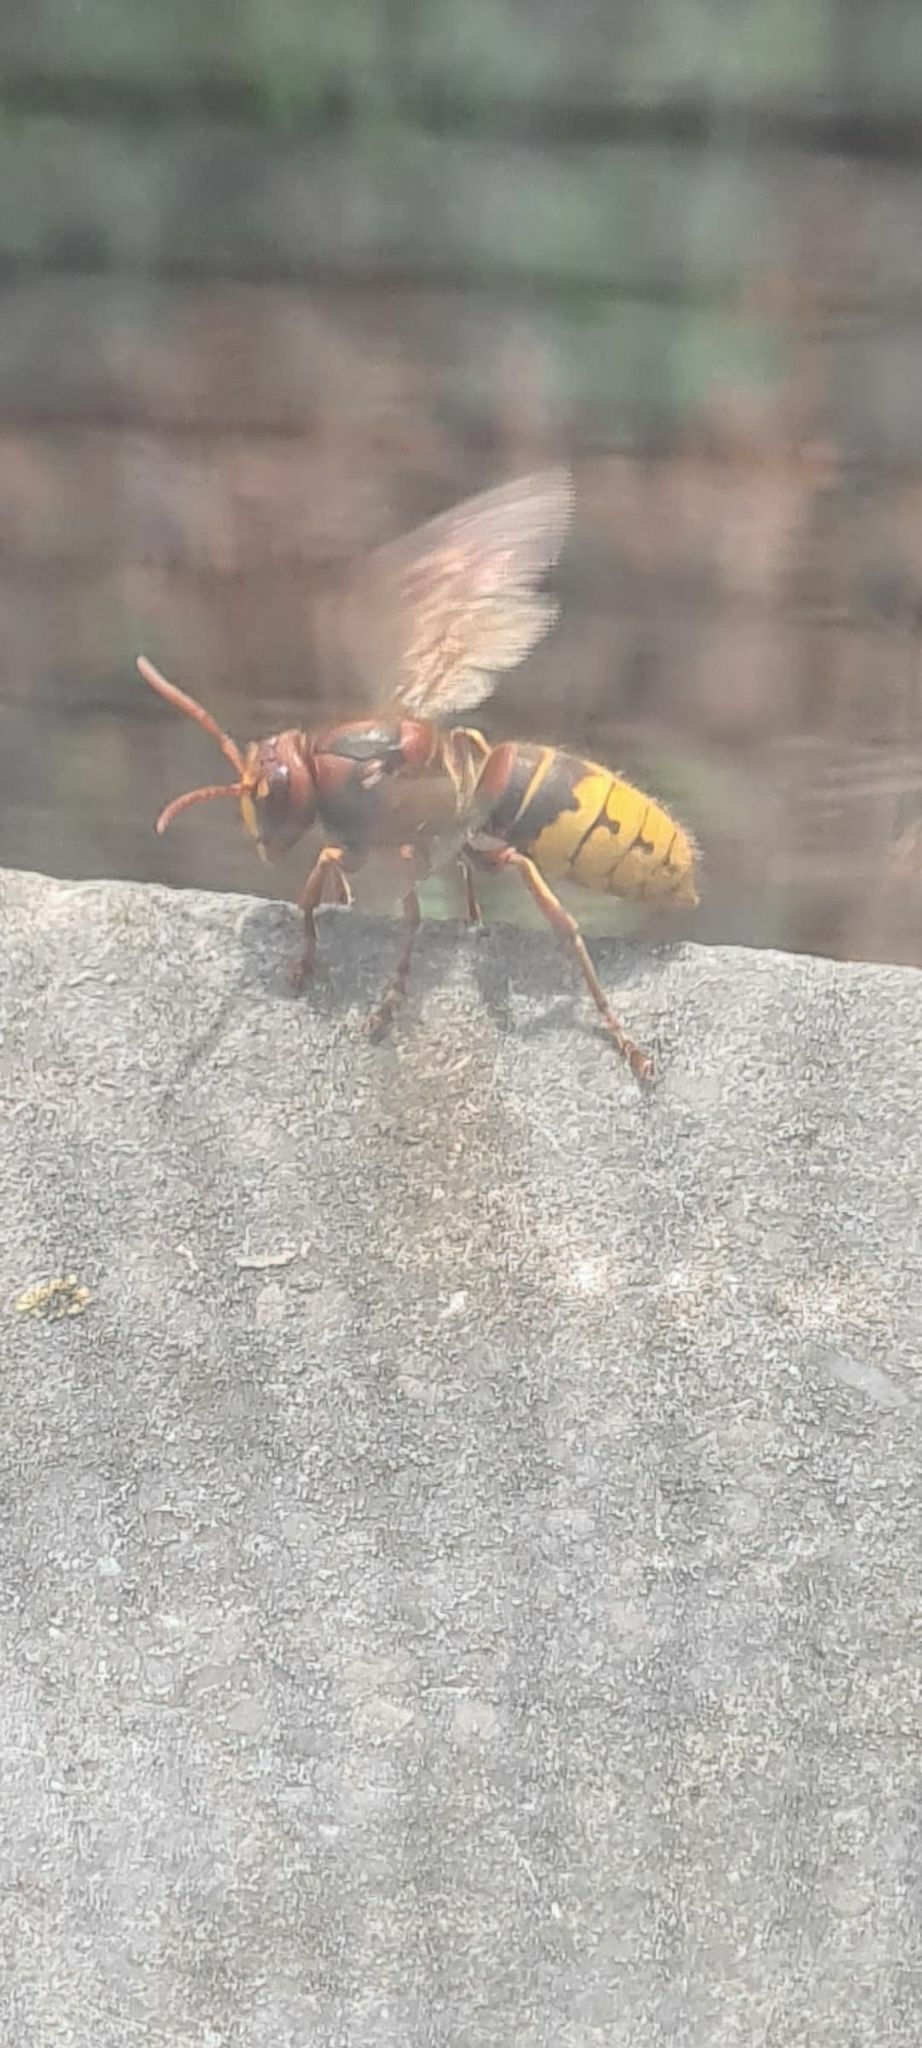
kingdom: Animalia
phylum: Arthropoda
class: Insecta
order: Hymenoptera
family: Vespidae
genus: Vespa
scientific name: Vespa crabro
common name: Hornet
